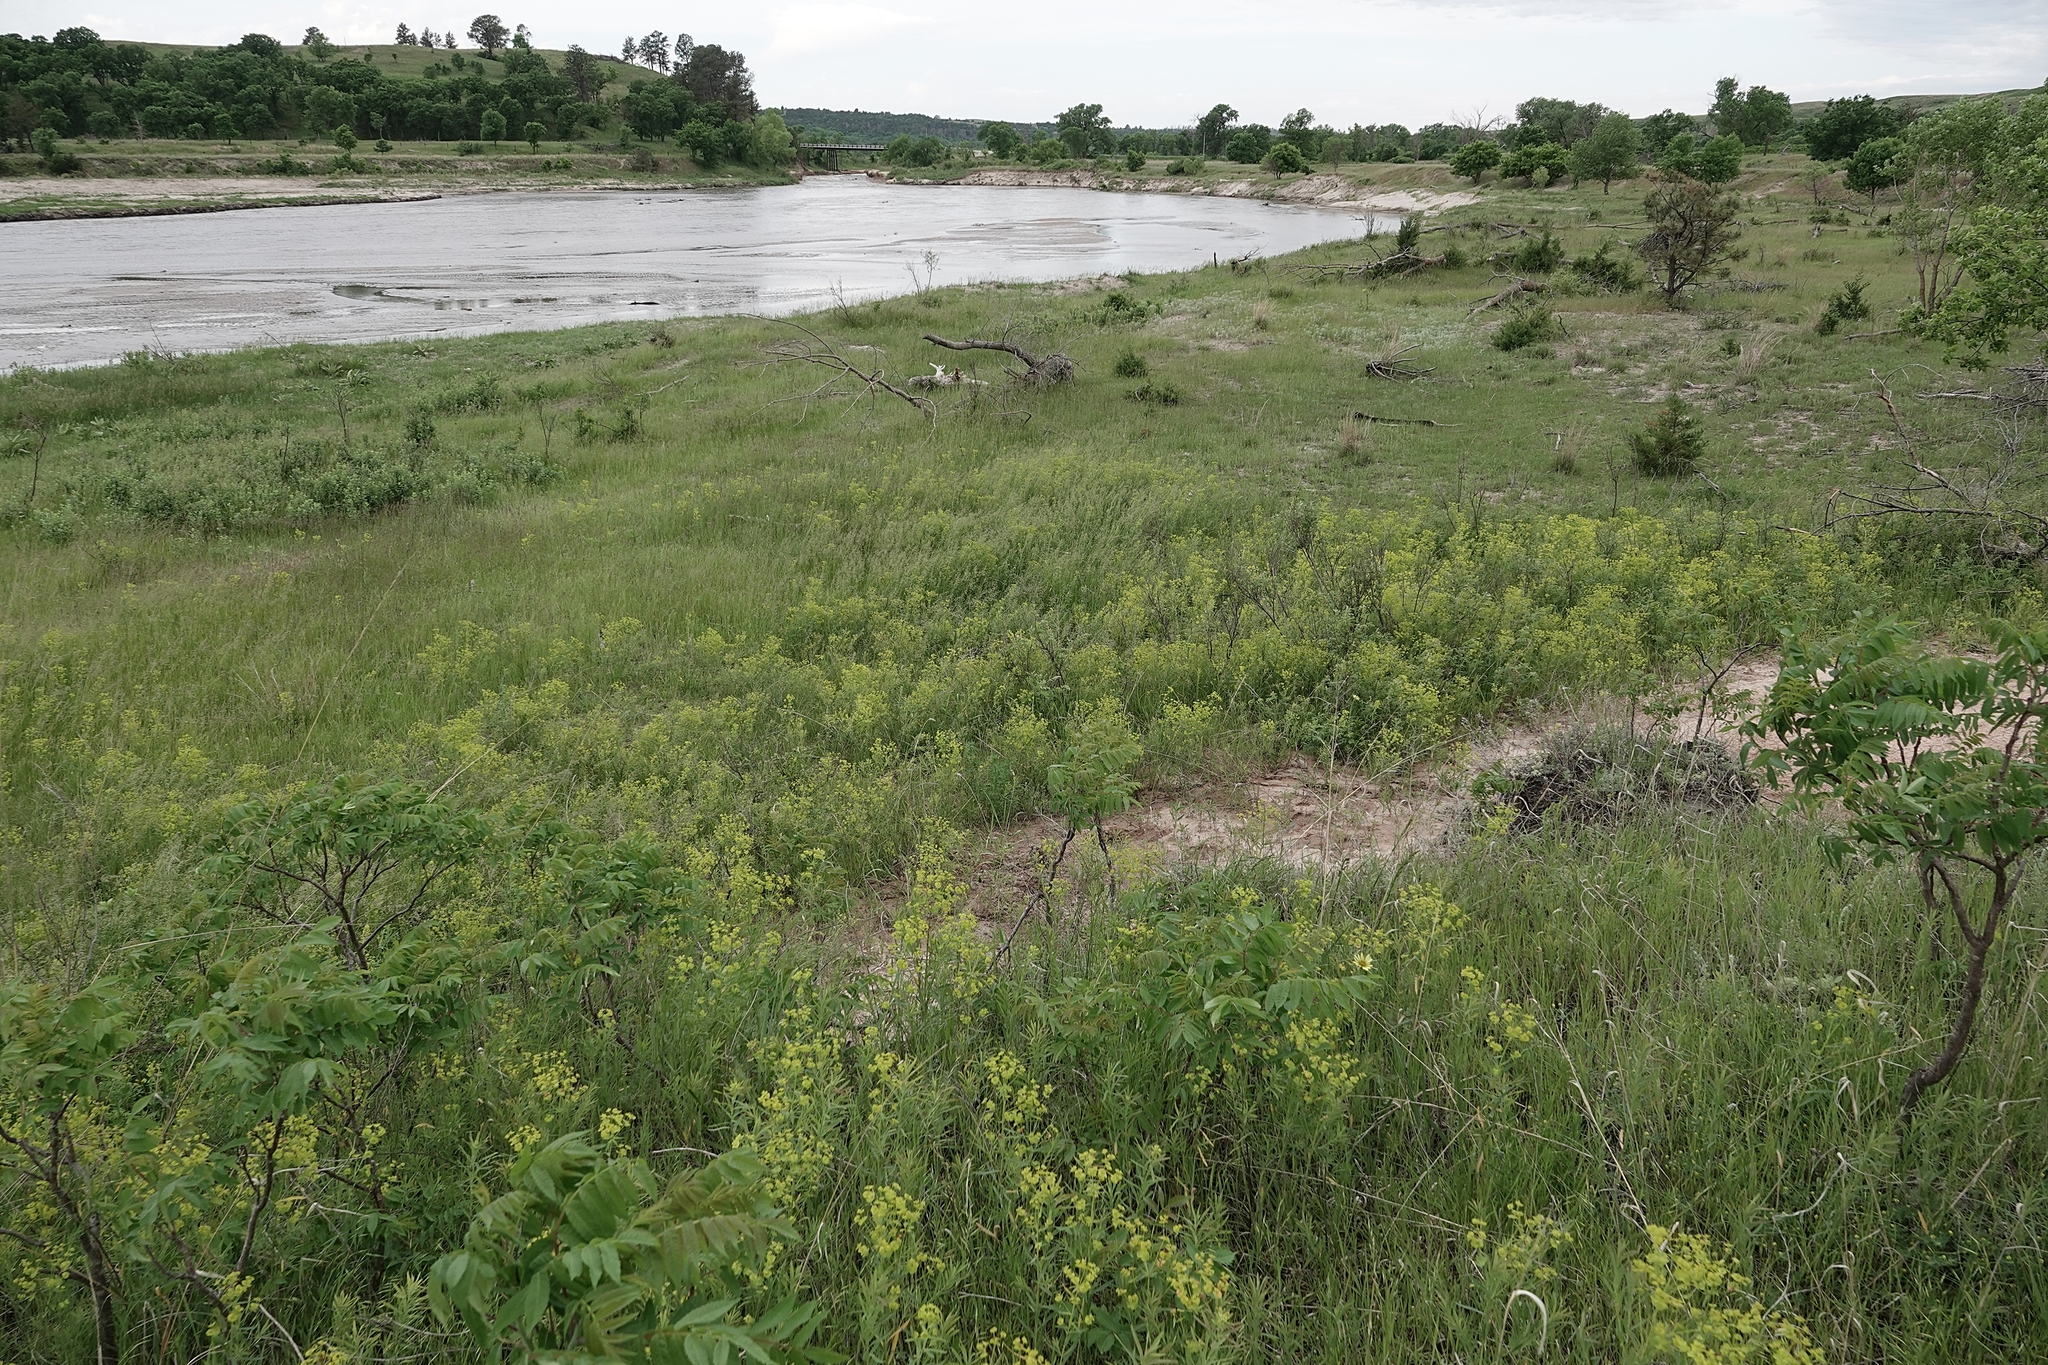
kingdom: Plantae
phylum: Tracheophyta
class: Magnoliopsida
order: Malpighiales
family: Euphorbiaceae
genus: Euphorbia
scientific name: Euphorbia virgata
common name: Leafy spurge
